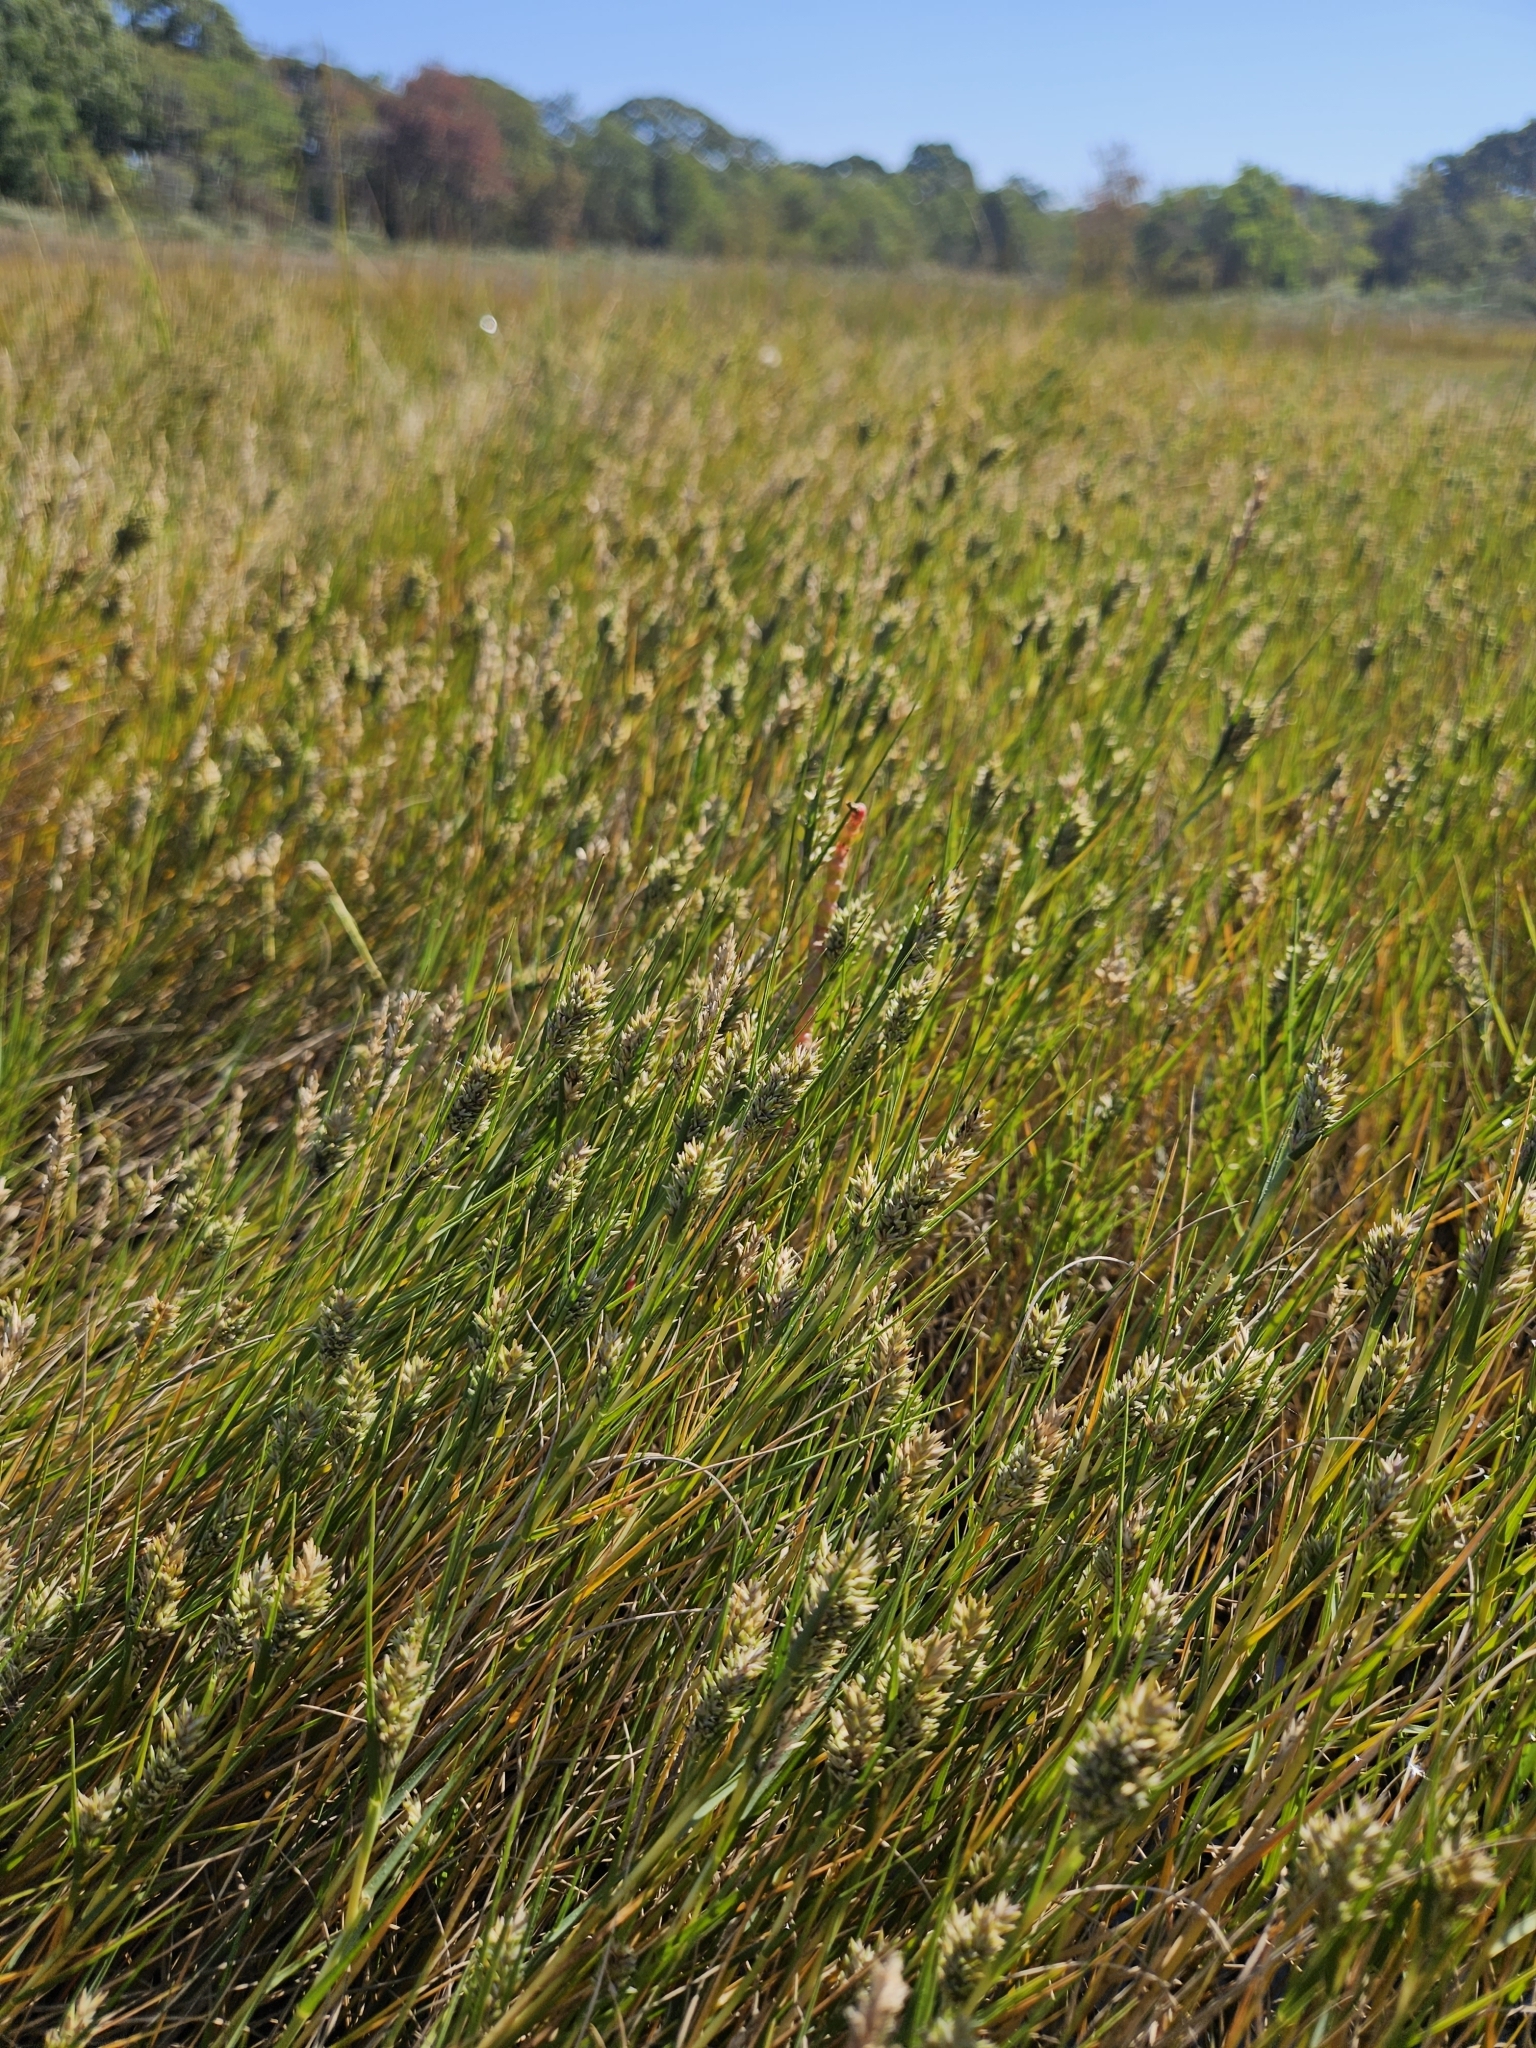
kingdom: Plantae
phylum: Tracheophyta
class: Liliopsida
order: Poales
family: Poaceae
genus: Distichlis
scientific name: Distichlis spicata
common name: Saltgrass
